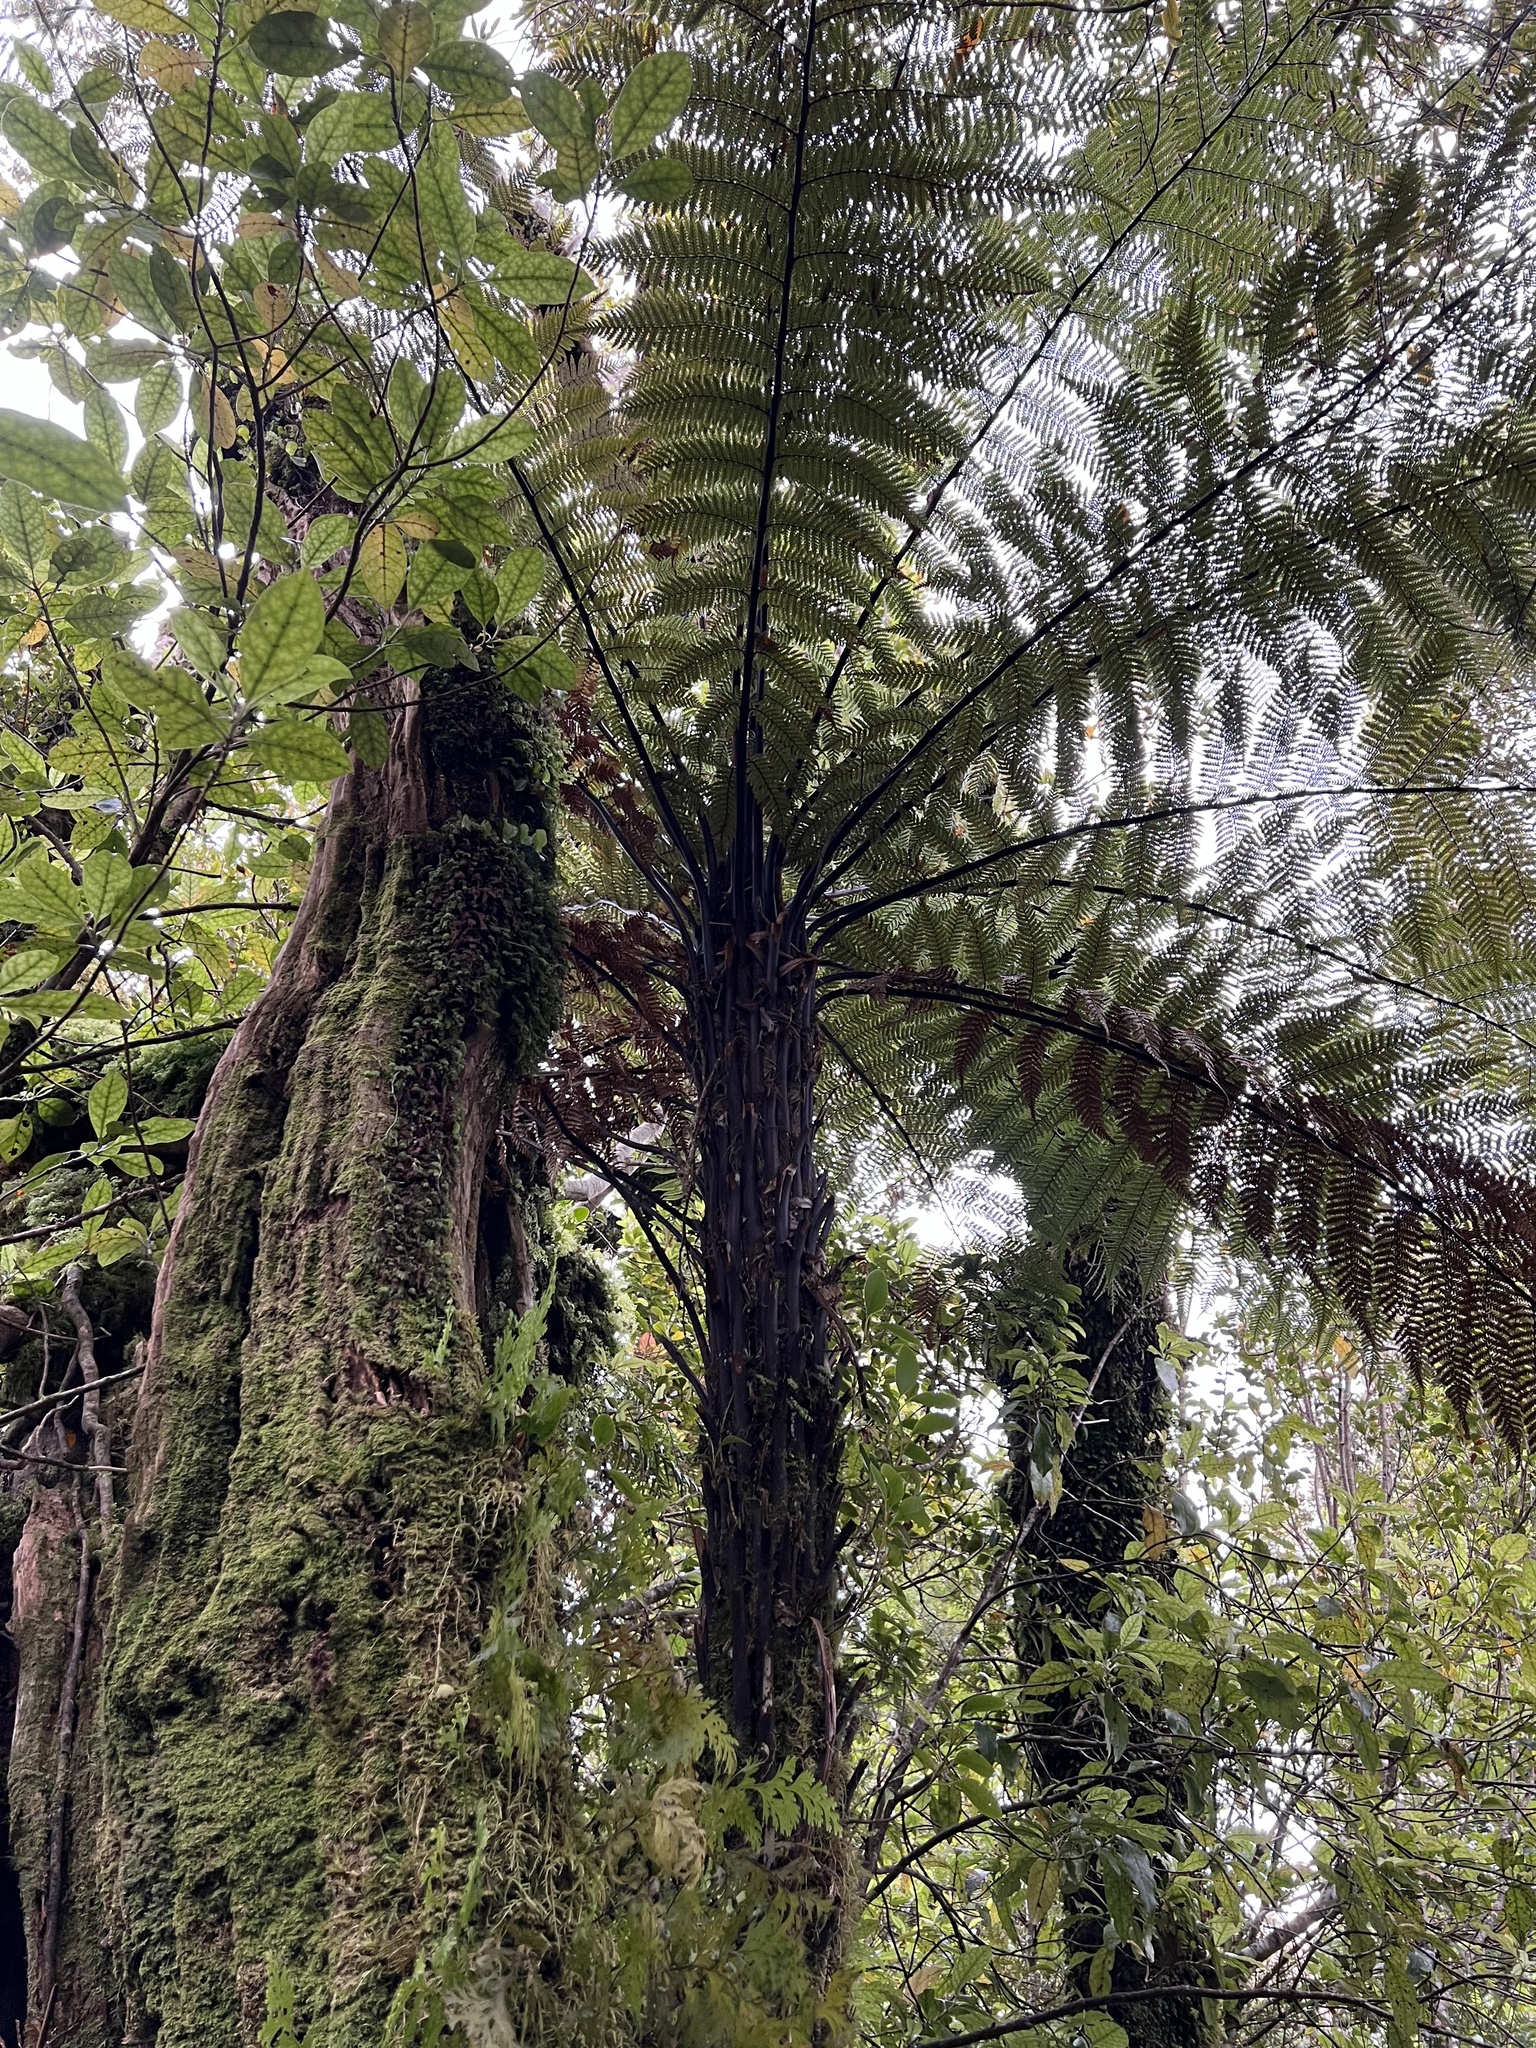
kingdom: Plantae
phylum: Tracheophyta
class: Polypodiopsida
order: Cyatheales
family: Dicksoniaceae
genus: Dicksonia
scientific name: Dicksonia squarrosa
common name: Hard treefern
